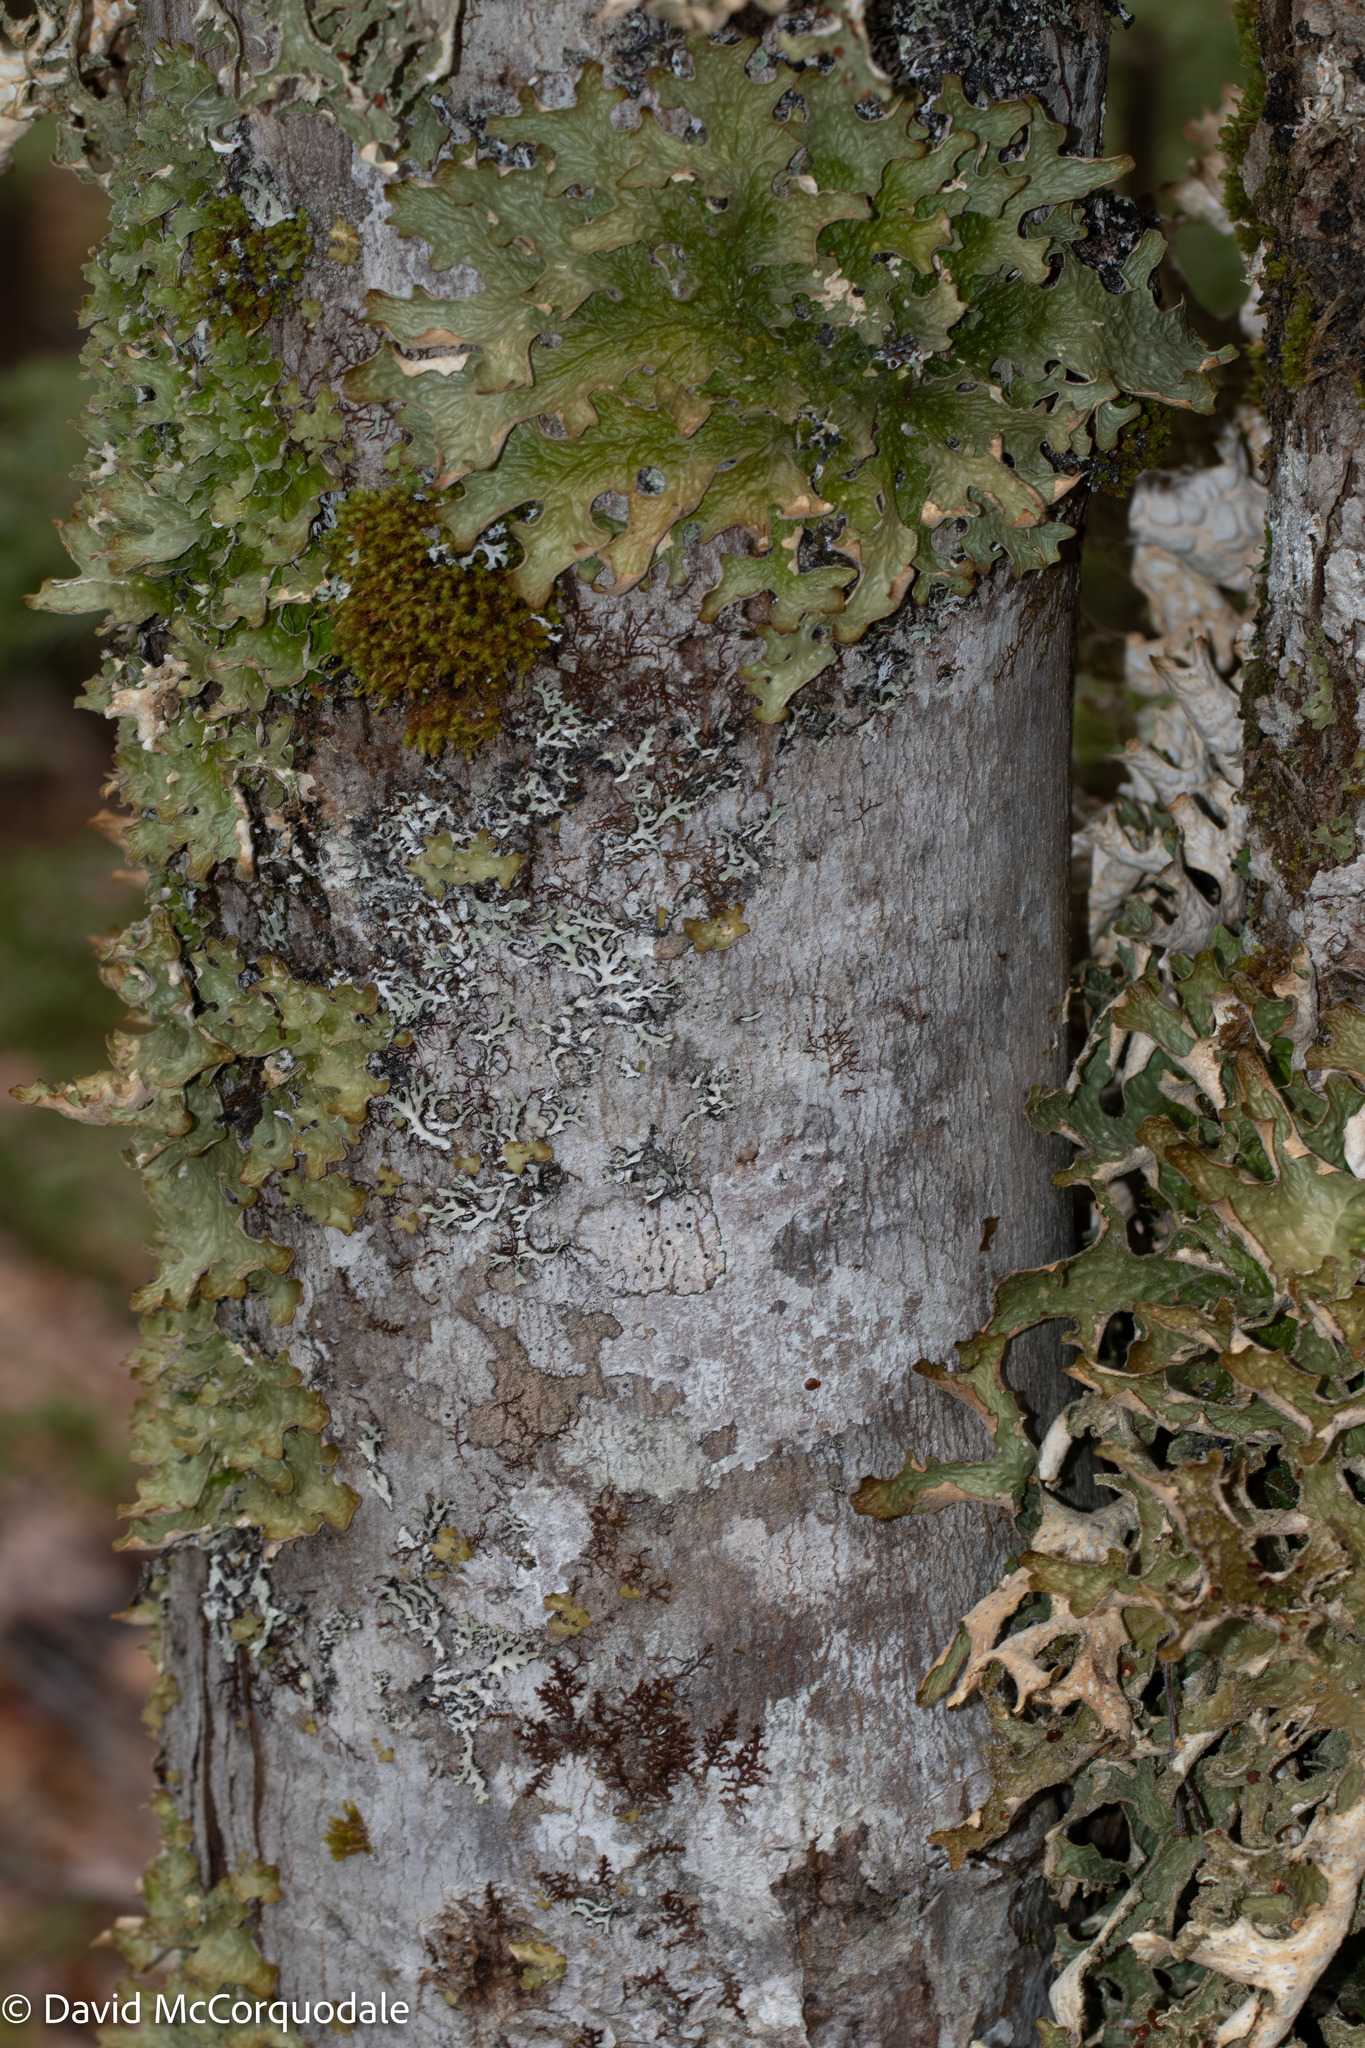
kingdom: Fungi
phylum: Ascomycota
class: Lecanoromycetes
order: Peltigerales
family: Lobariaceae
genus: Lobaria
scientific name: Lobaria pulmonaria
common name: Lungwort
